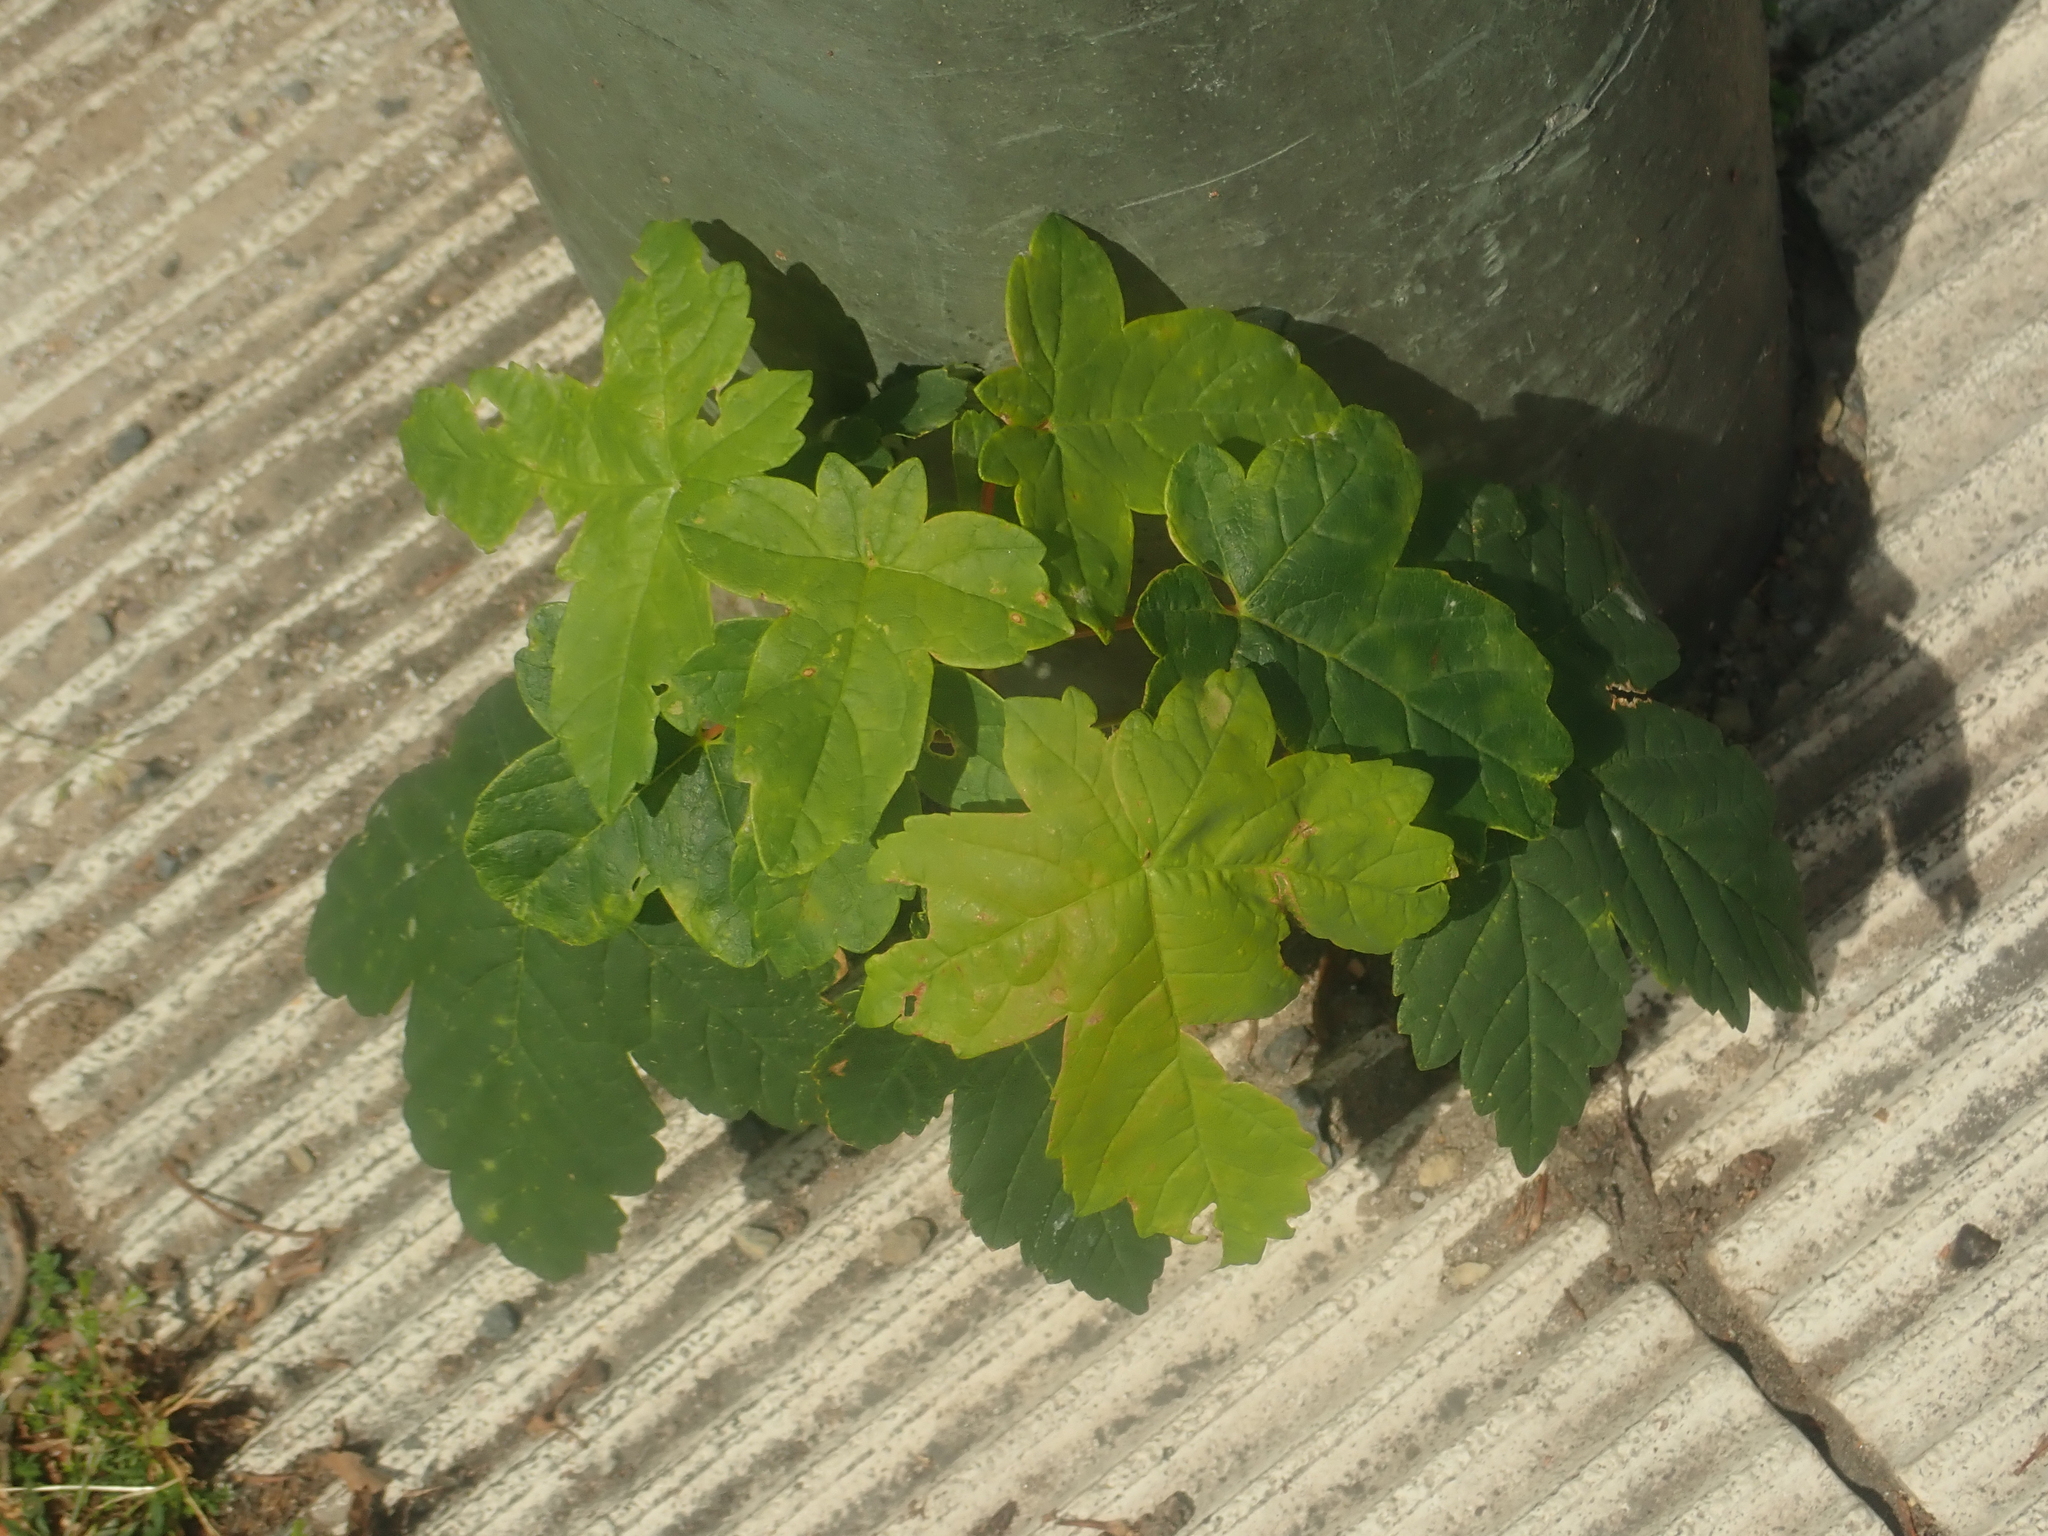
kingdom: Plantae
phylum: Tracheophyta
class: Magnoliopsida
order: Sapindales
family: Sapindaceae
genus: Acer
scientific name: Acer pseudoplatanus
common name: Sycamore
